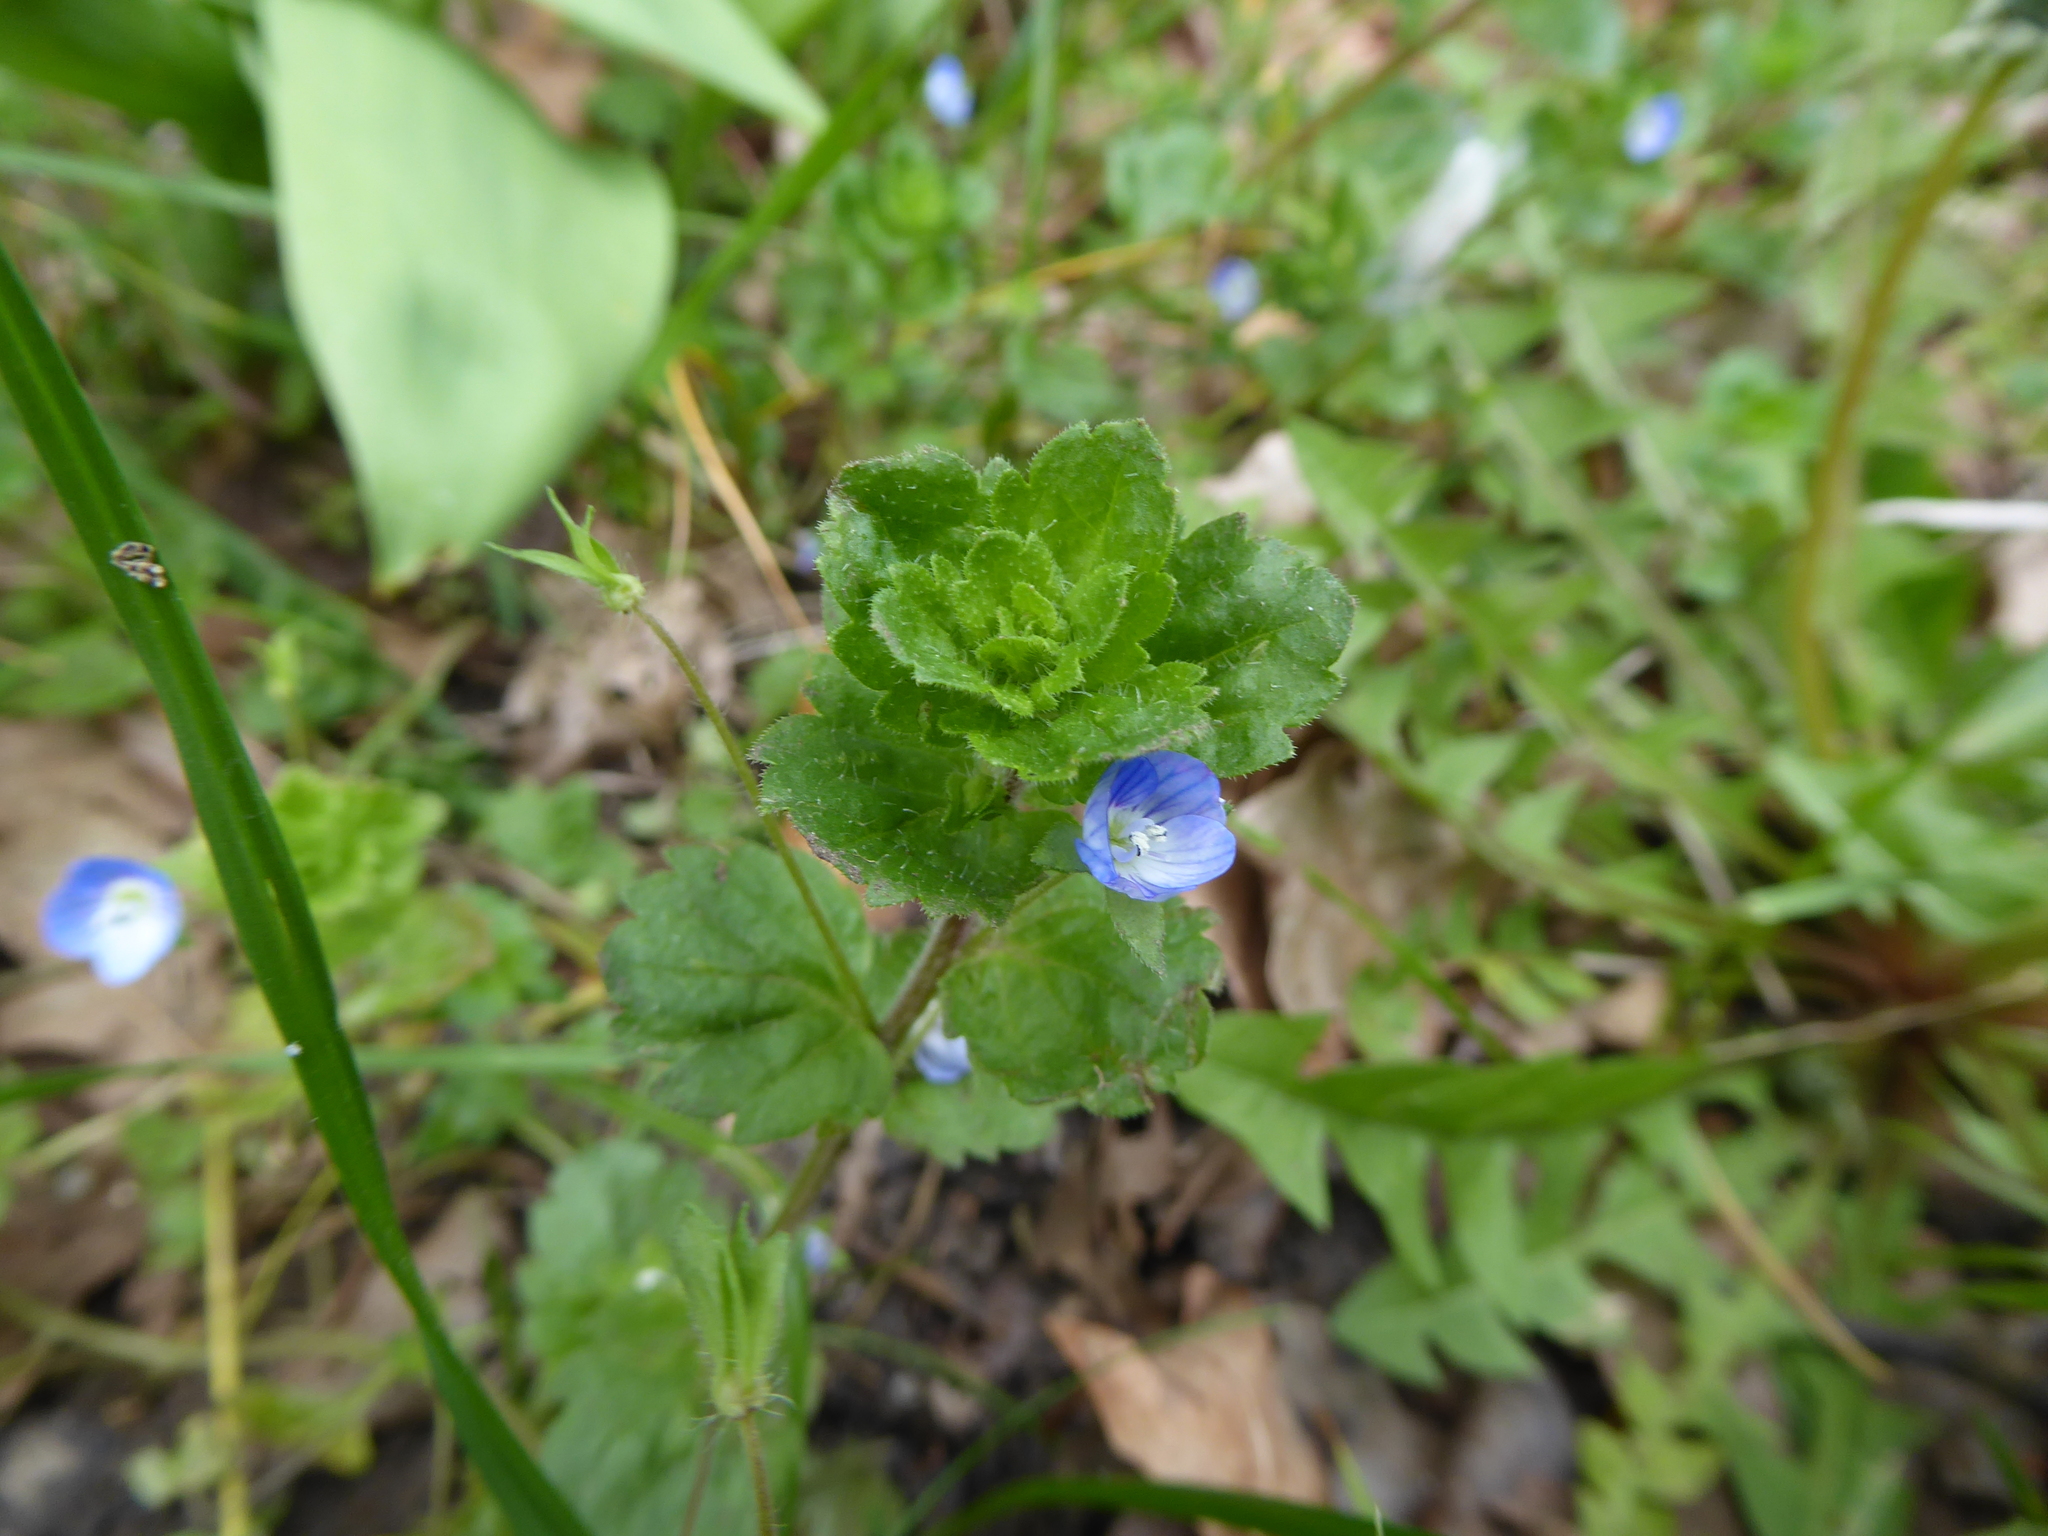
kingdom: Plantae
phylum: Tracheophyta
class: Magnoliopsida
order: Lamiales
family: Plantaginaceae
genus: Veronica
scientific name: Veronica persica
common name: Common field-speedwell
